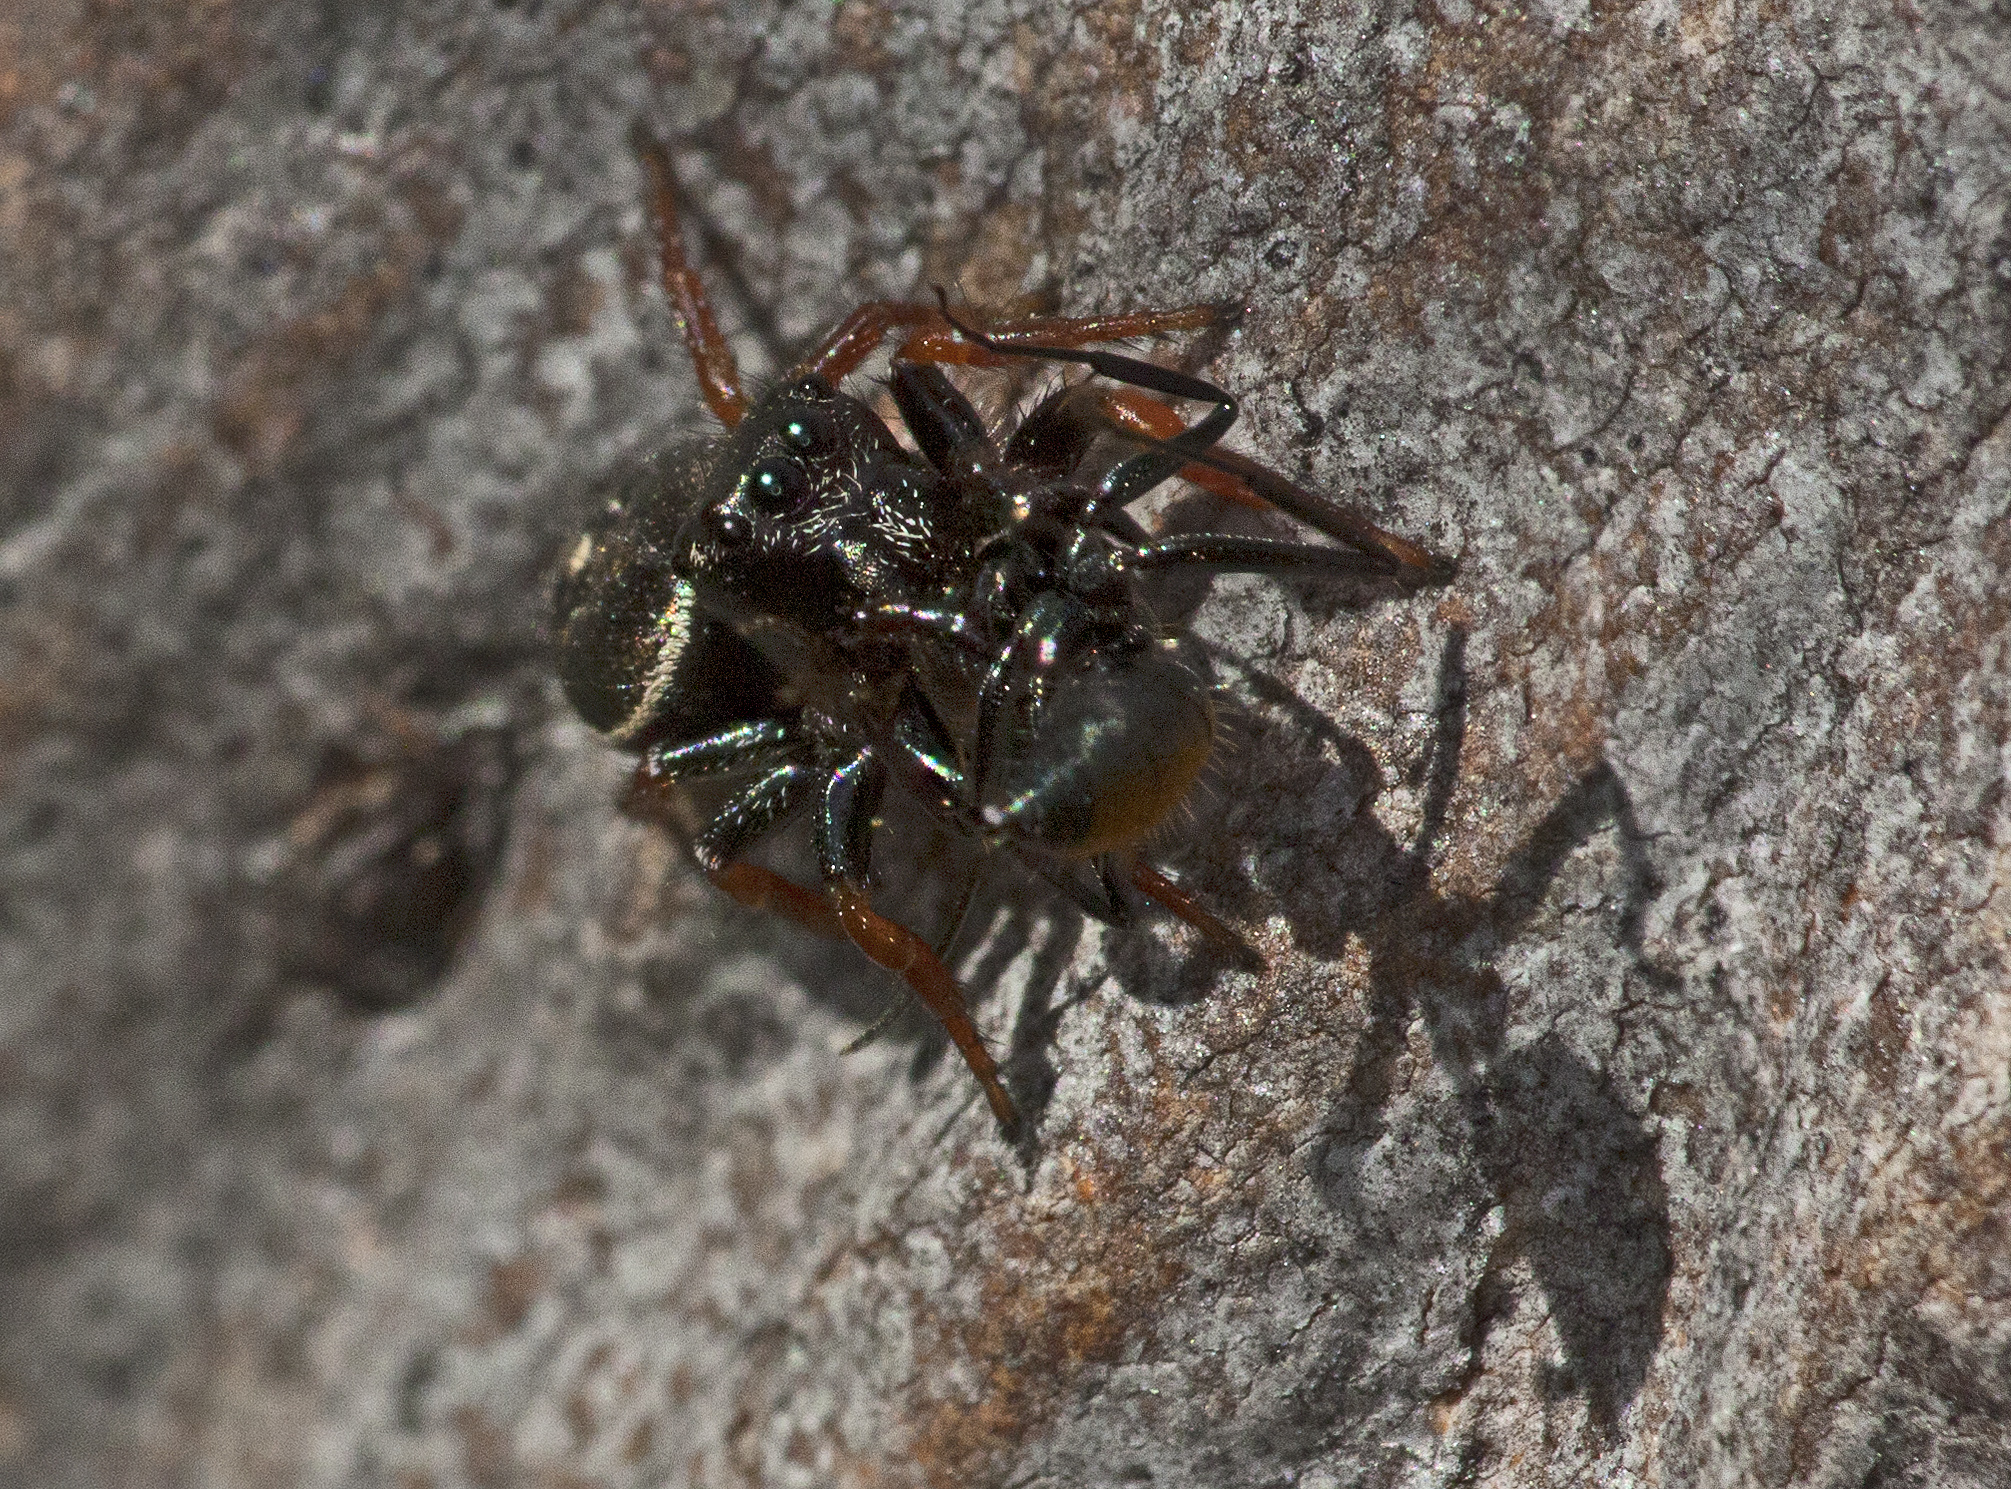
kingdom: Animalia
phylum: Arthropoda
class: Arachnida
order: Araneae
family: Salticidae
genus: Zenodorus
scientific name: Zenodorus orbiculatus
